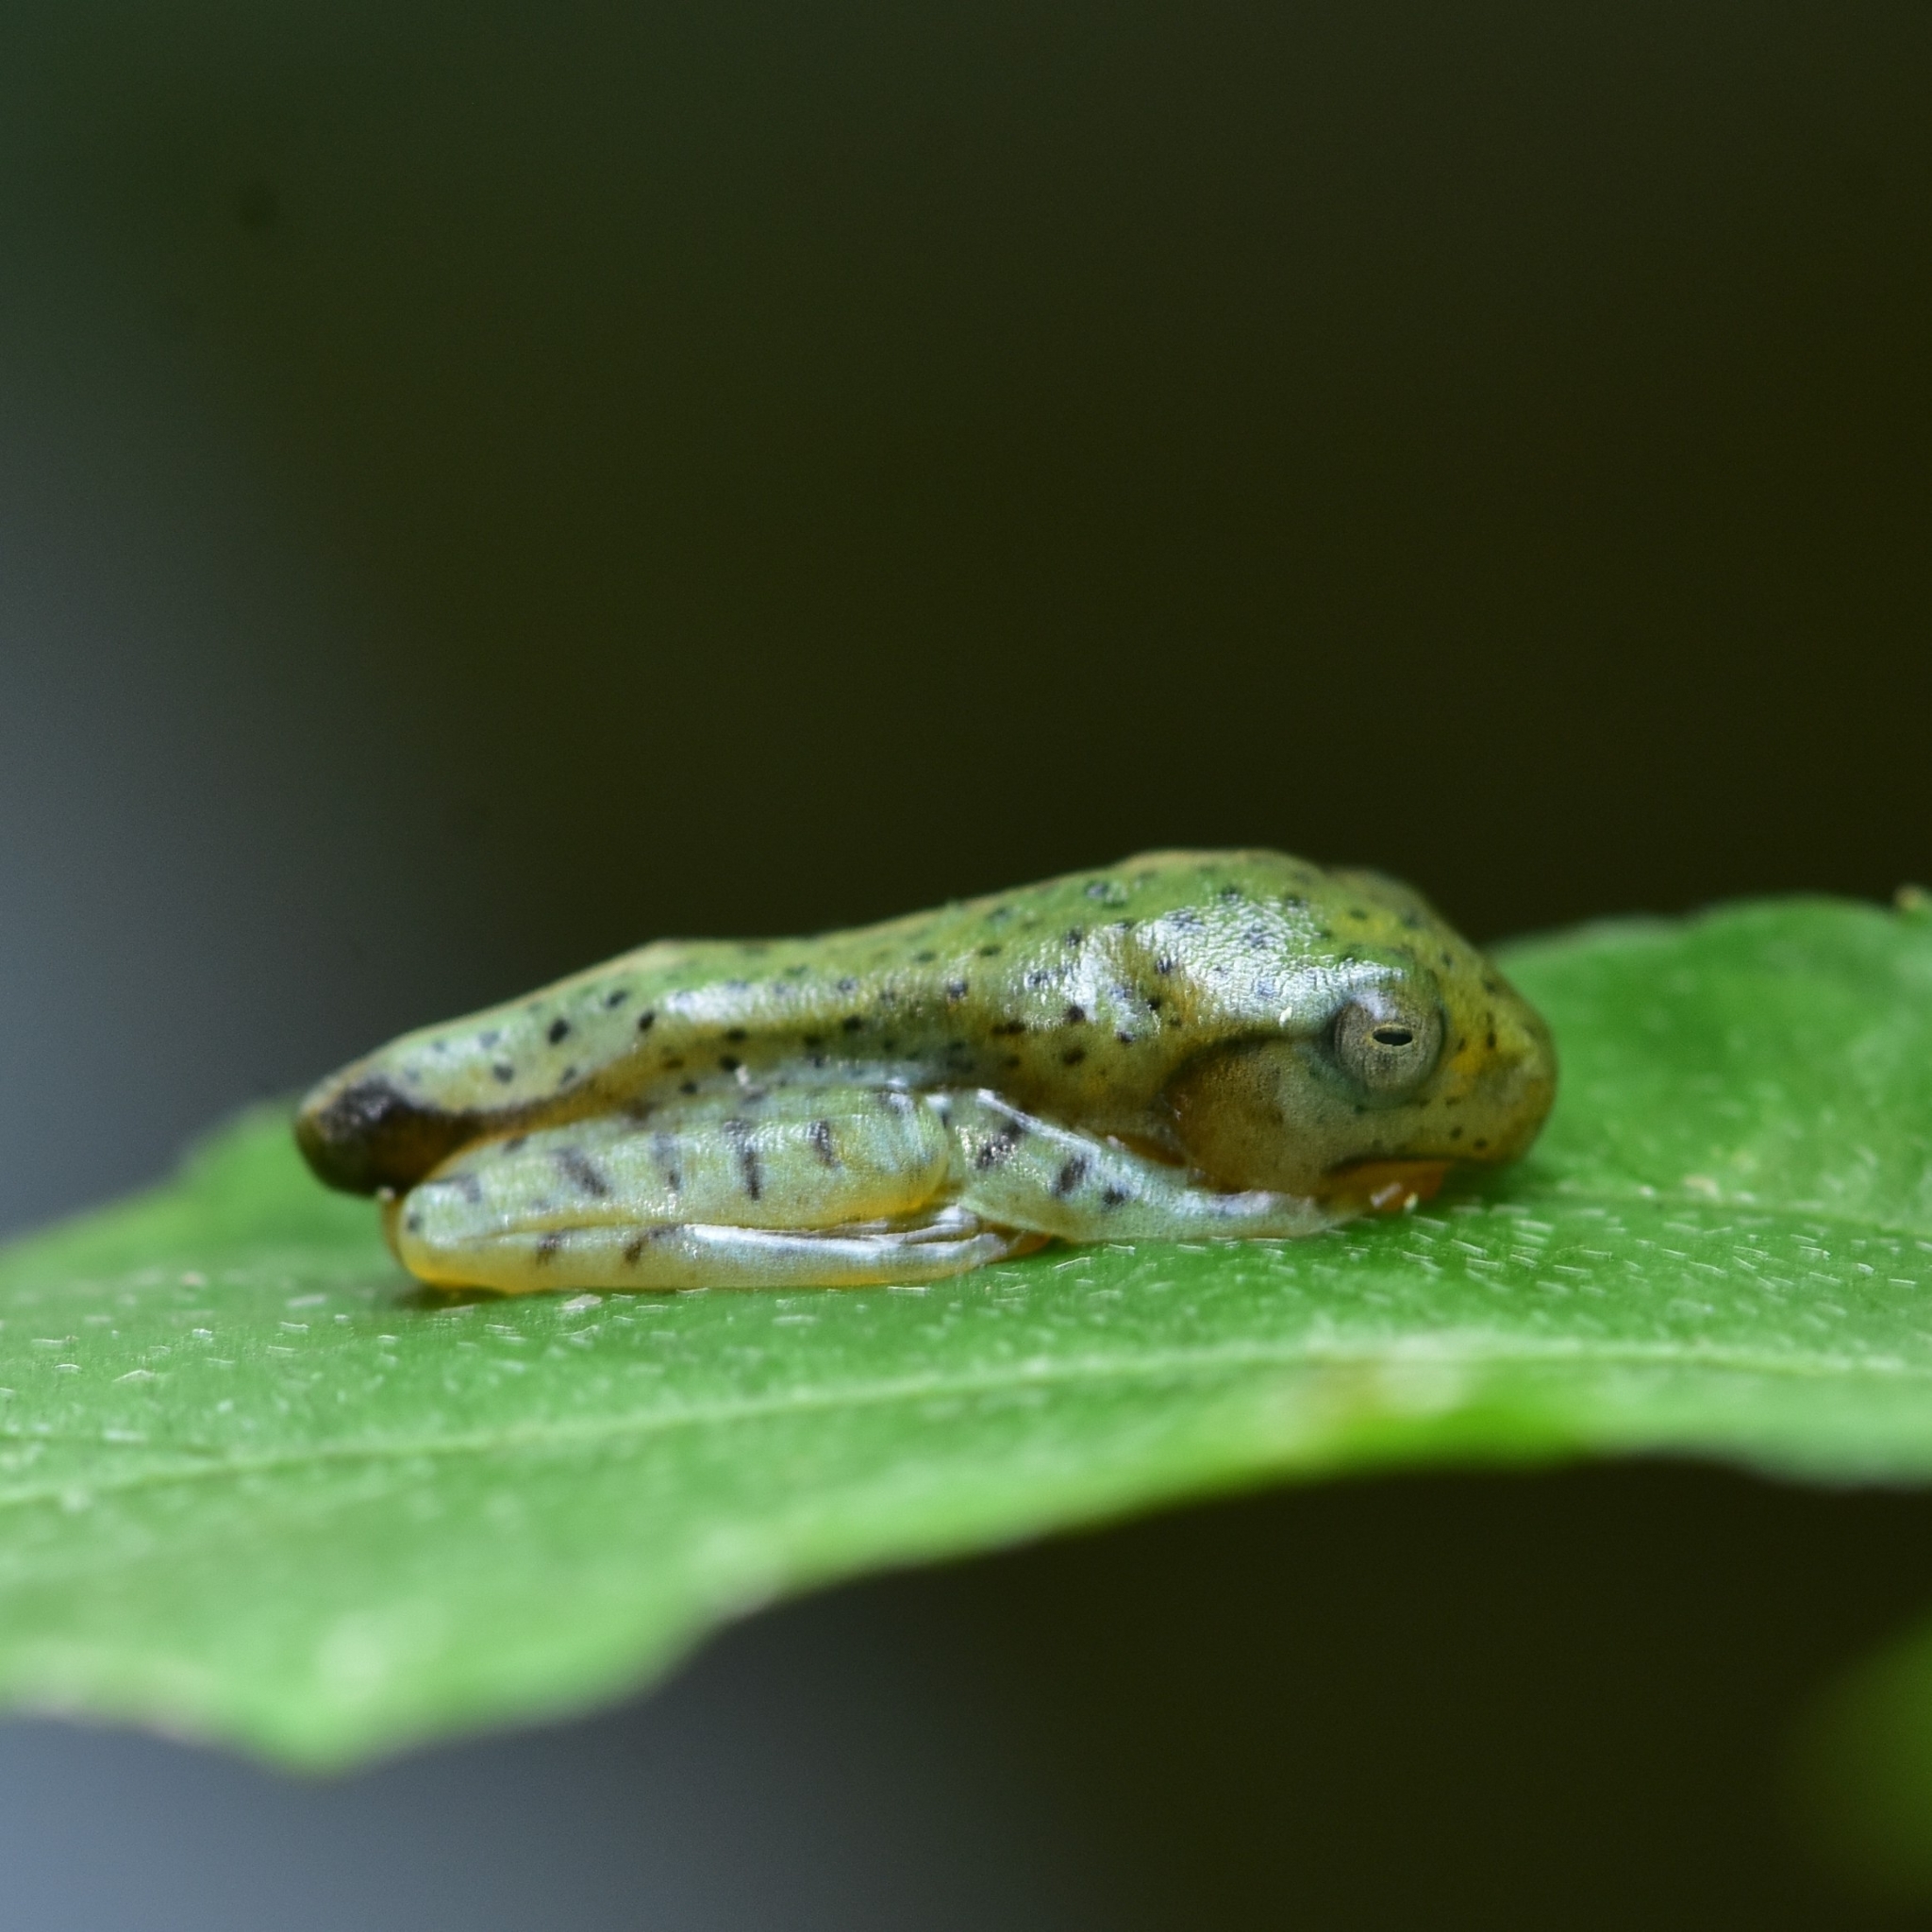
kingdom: Animalia
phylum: Chordata
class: Amphibia
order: Anura
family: Rhacophoridae
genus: Rhacophorus
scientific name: Rhacophorus malabaricus
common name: Malabar gliding frog
